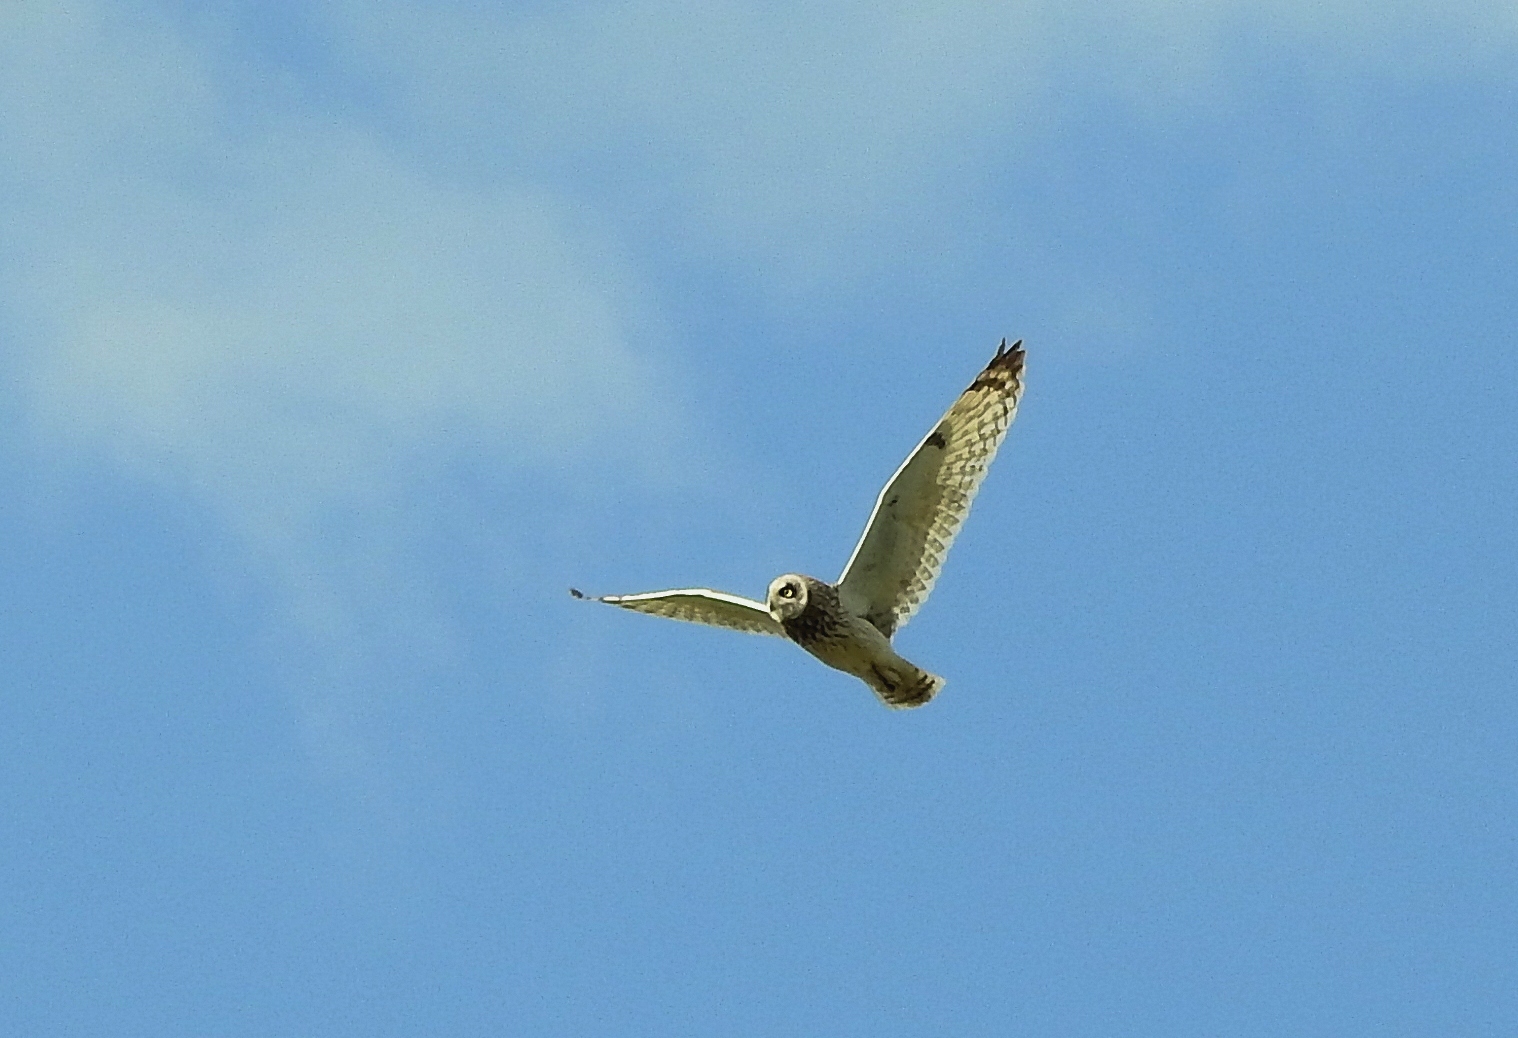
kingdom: Animalia
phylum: Chordata
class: Aves
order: Strigiformes
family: Strigidae
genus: Asio
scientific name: Asio flammeus
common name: Short-eared owl
